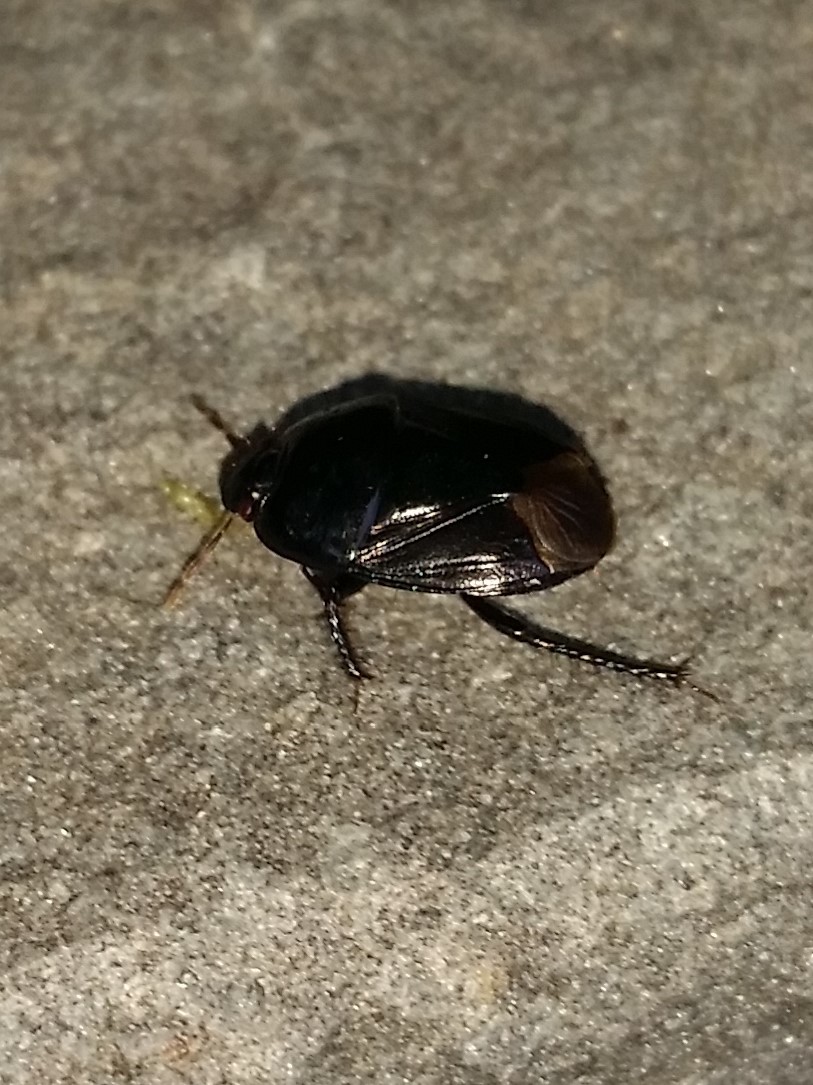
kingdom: Animalia
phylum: Arthropoda
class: Insecta
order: Hemiptera
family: Cydnidae
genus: Pangaeus
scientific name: Pangaeus bilineatus
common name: Burrower bug
